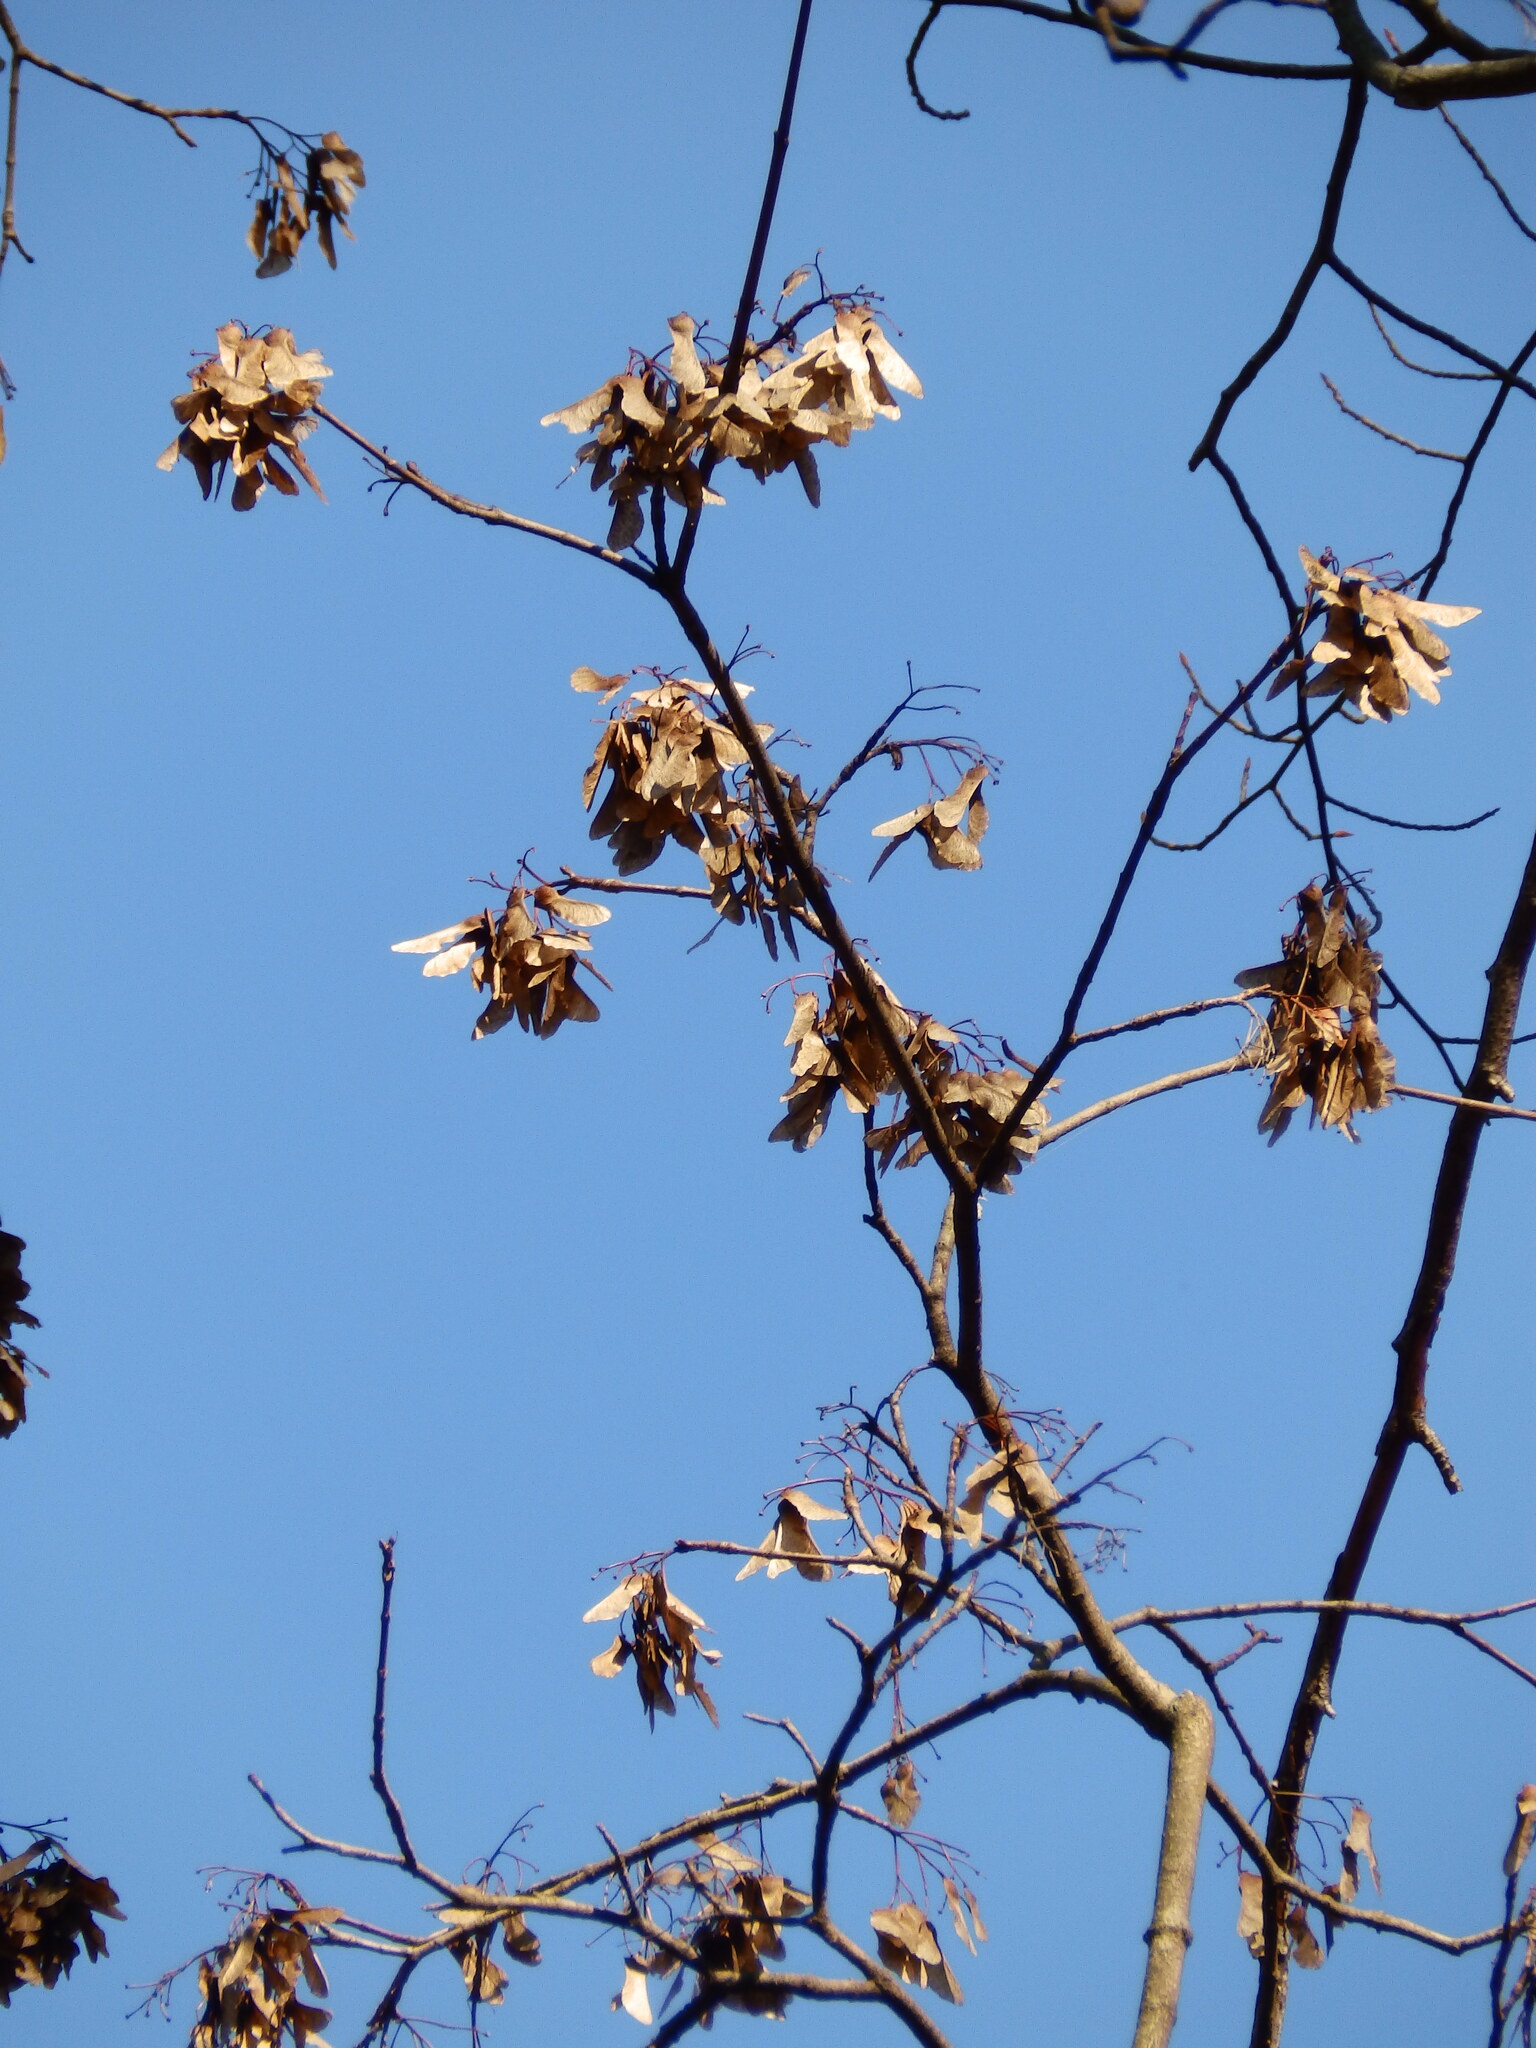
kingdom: Plantae
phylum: Tracheophyta
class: Magnoliopsida
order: Sapindales
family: Sapindaceae
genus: Acer
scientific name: Acer platanoides
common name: Norway maple
